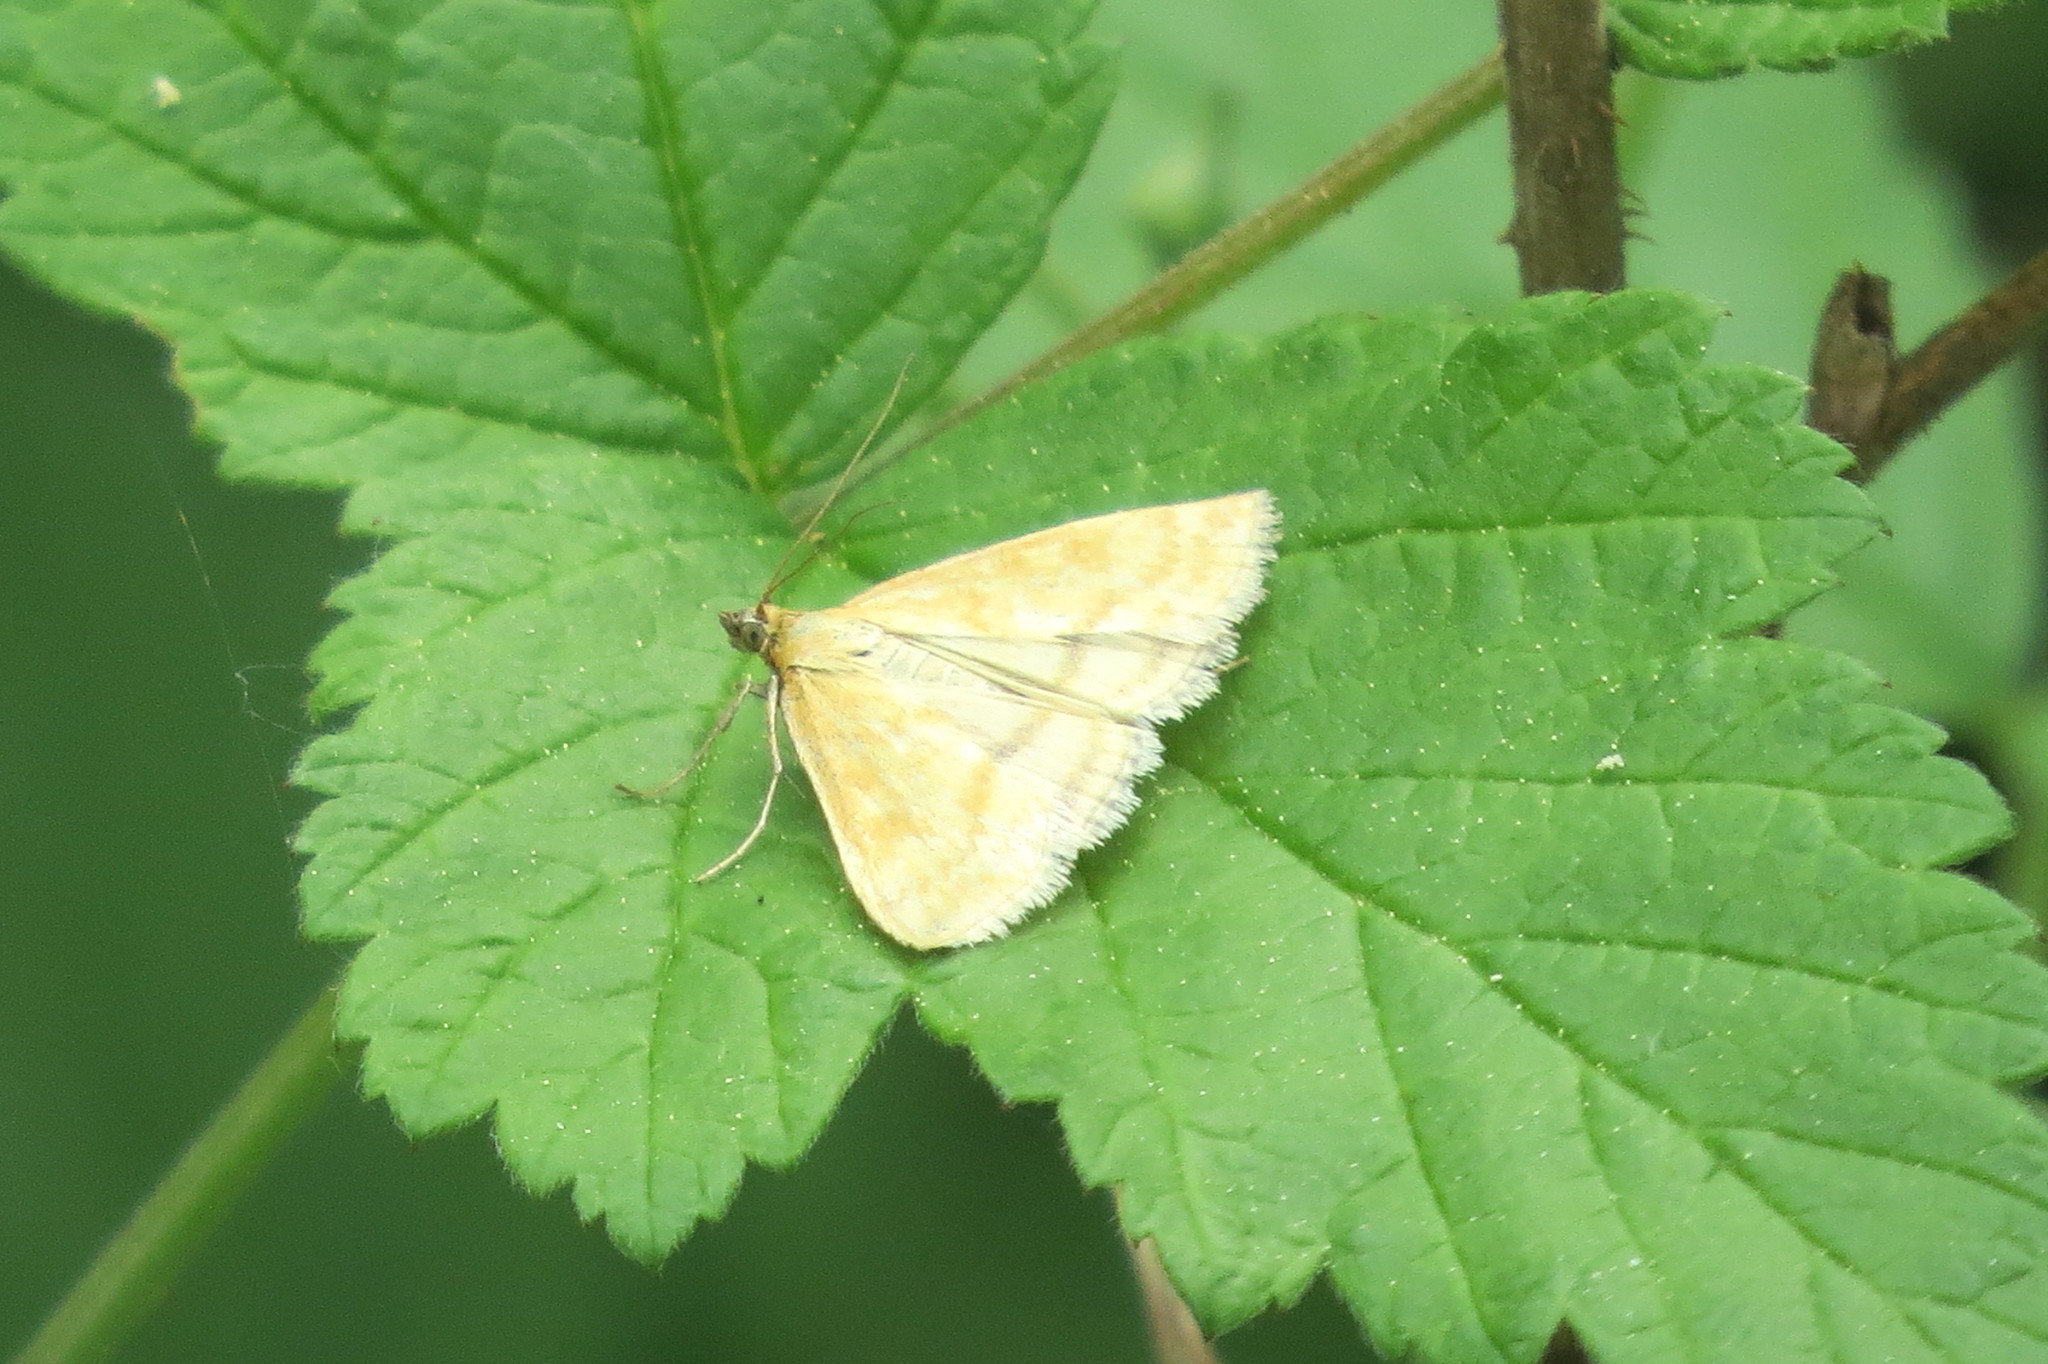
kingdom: Animalia
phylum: Arthropoda
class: Insecta
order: Lepidoptera
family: Crambidae
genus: Sitochroa
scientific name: Sitochroa verticalis
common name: Lesser pearl
